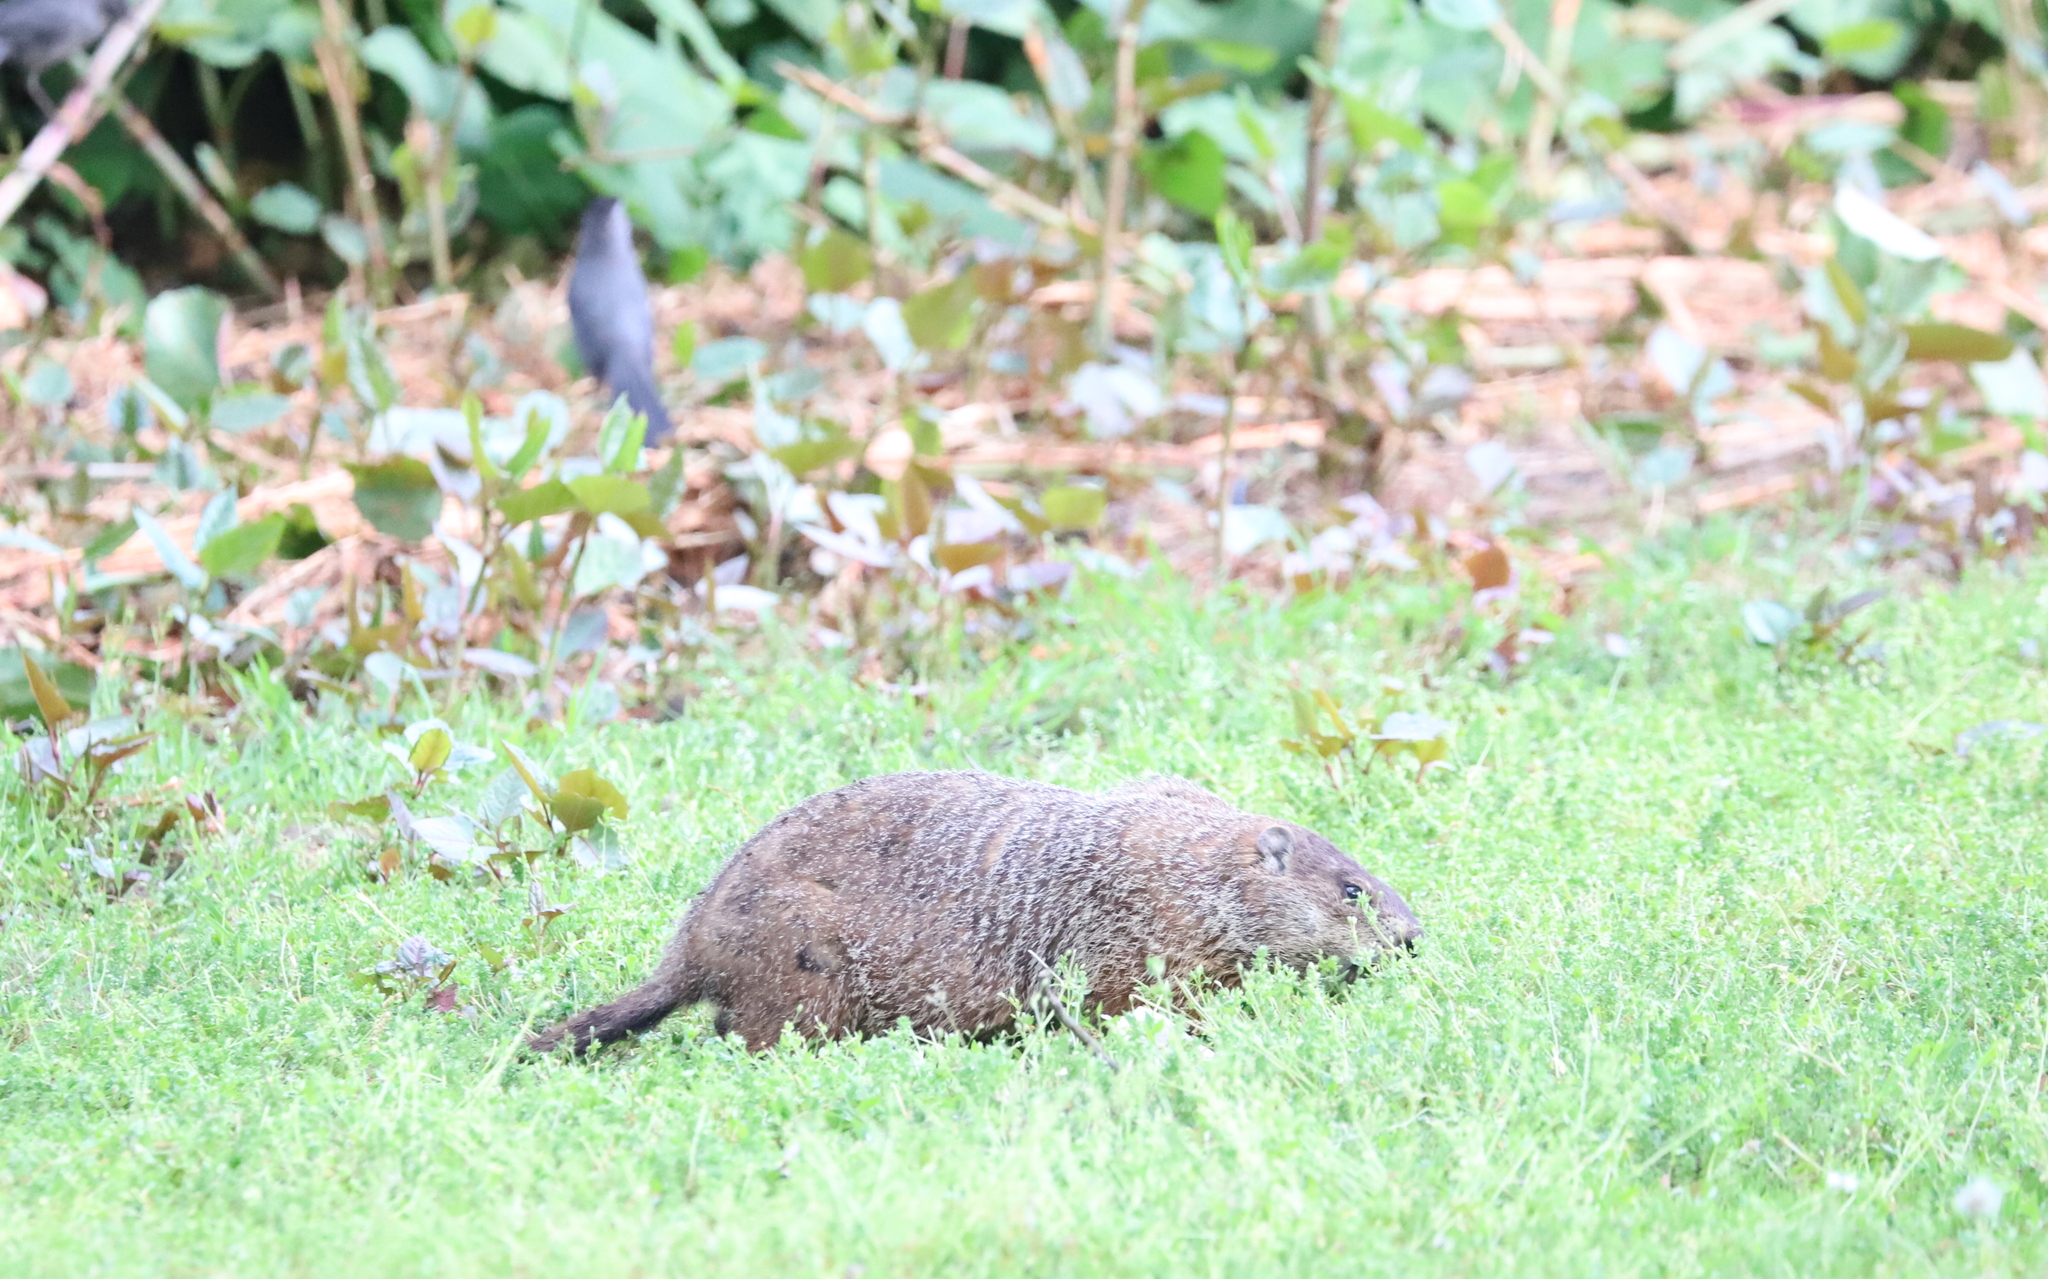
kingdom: Animalia
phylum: Chordata
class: Mammalia
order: Rodentia
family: Sciuridae
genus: Marmota
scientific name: Marmota monax
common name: Groundhog
